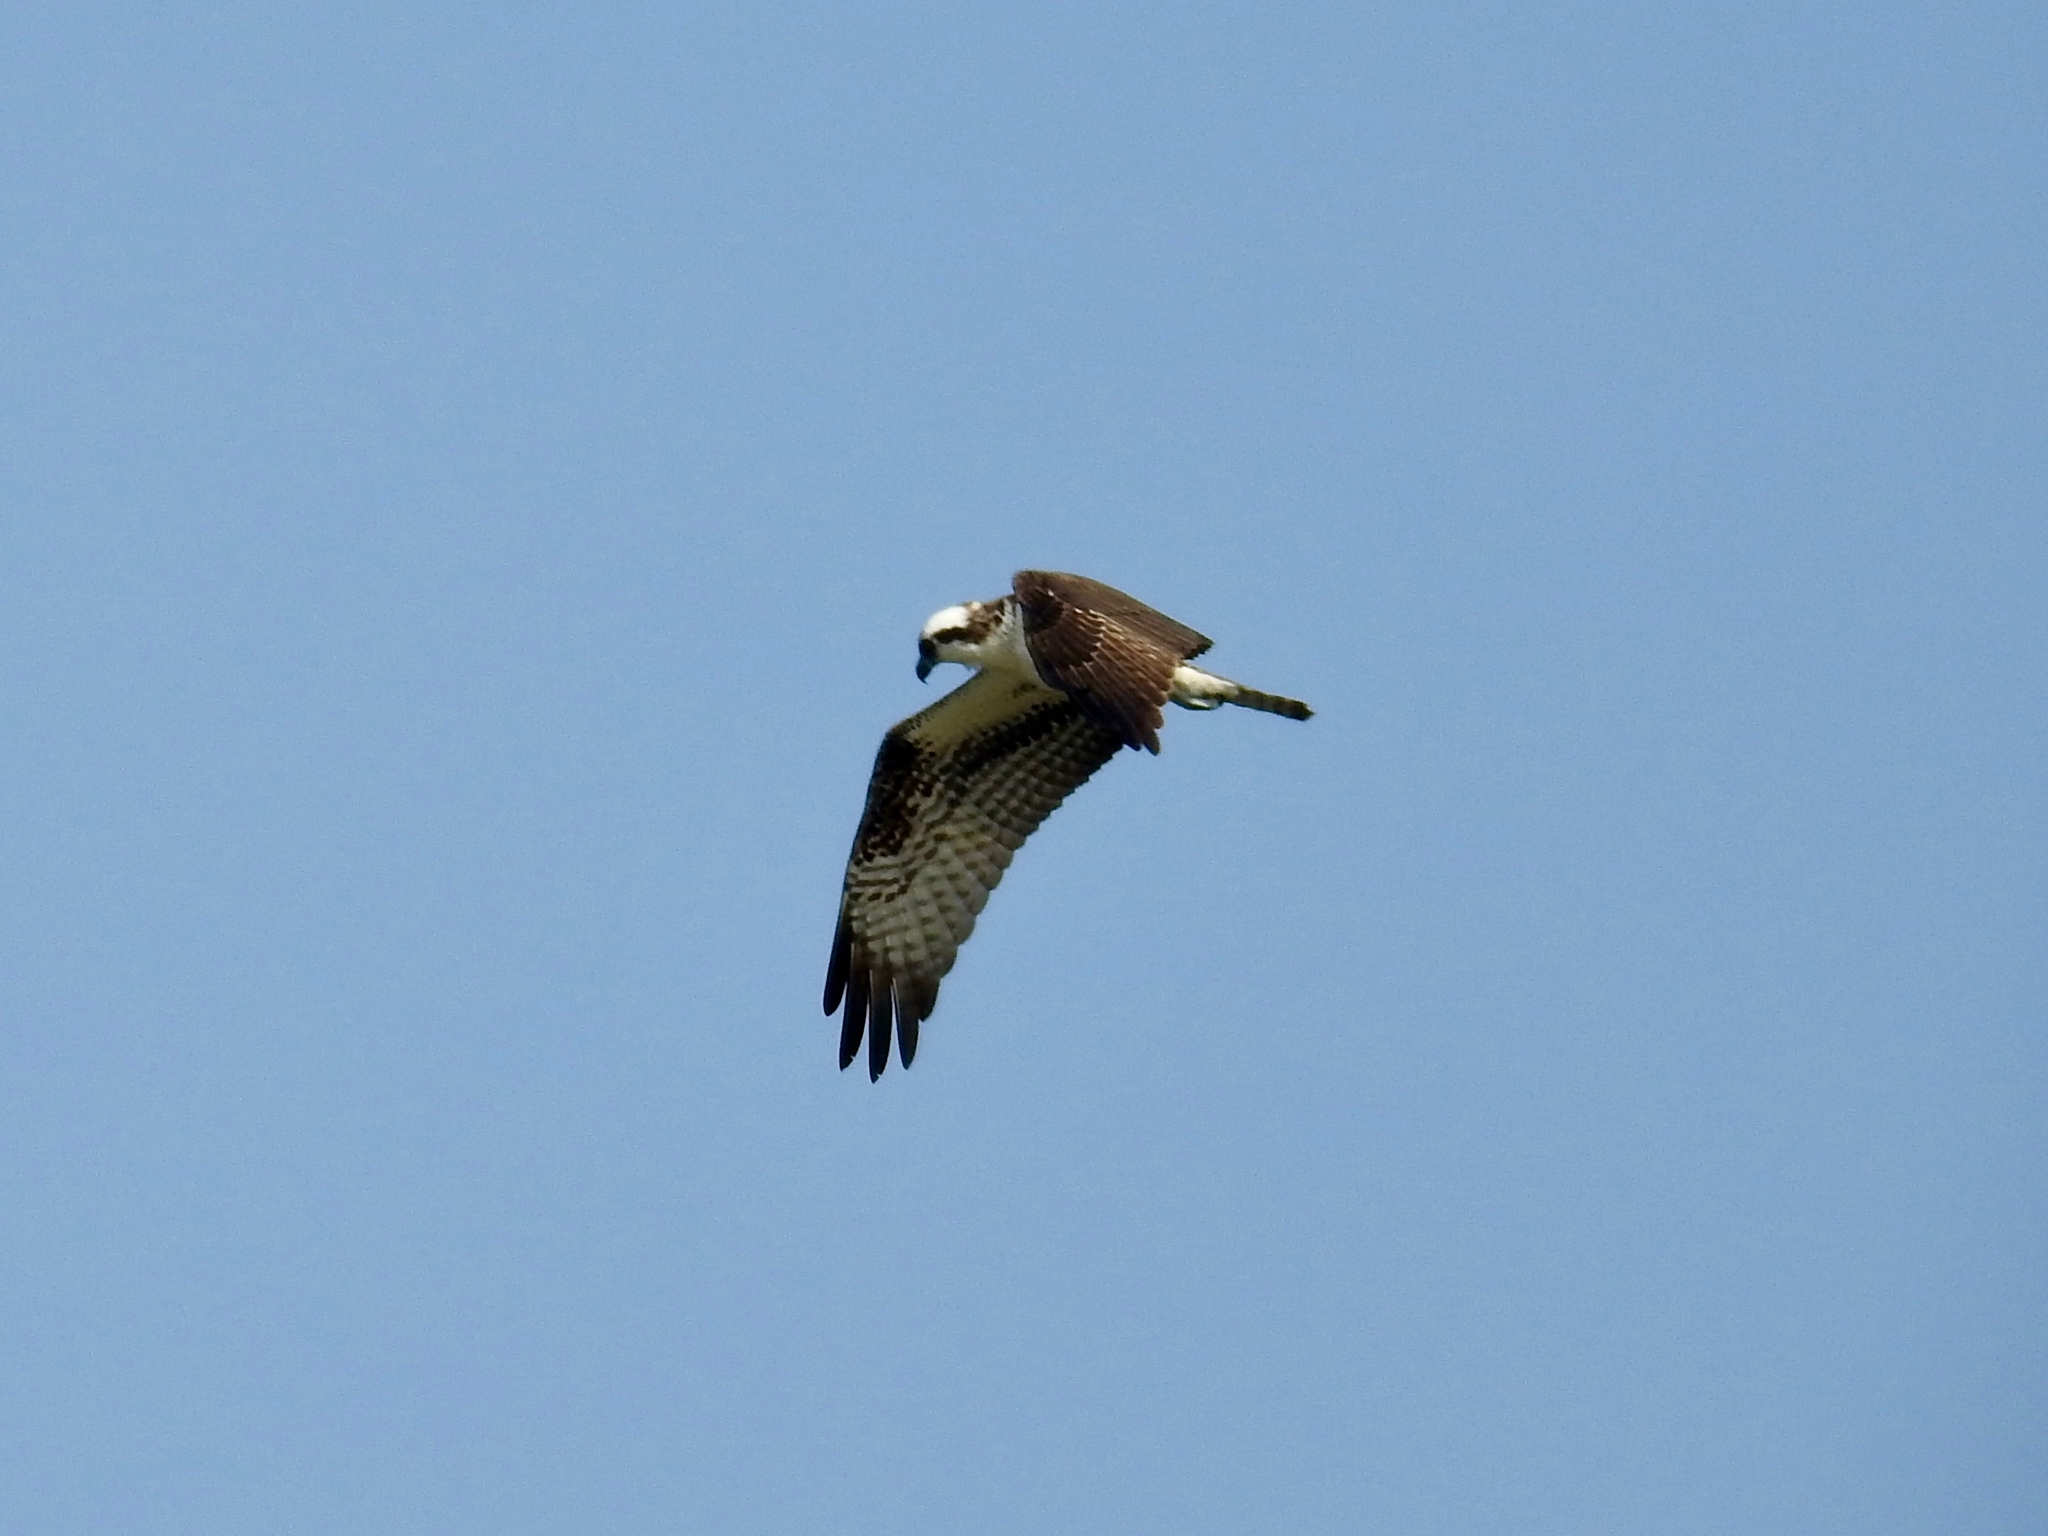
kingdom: Animalia
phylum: Chordata
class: Aves
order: Accipitriformes
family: Pandionidae
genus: Pandion
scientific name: Pandion haliaetus
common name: Osprey
